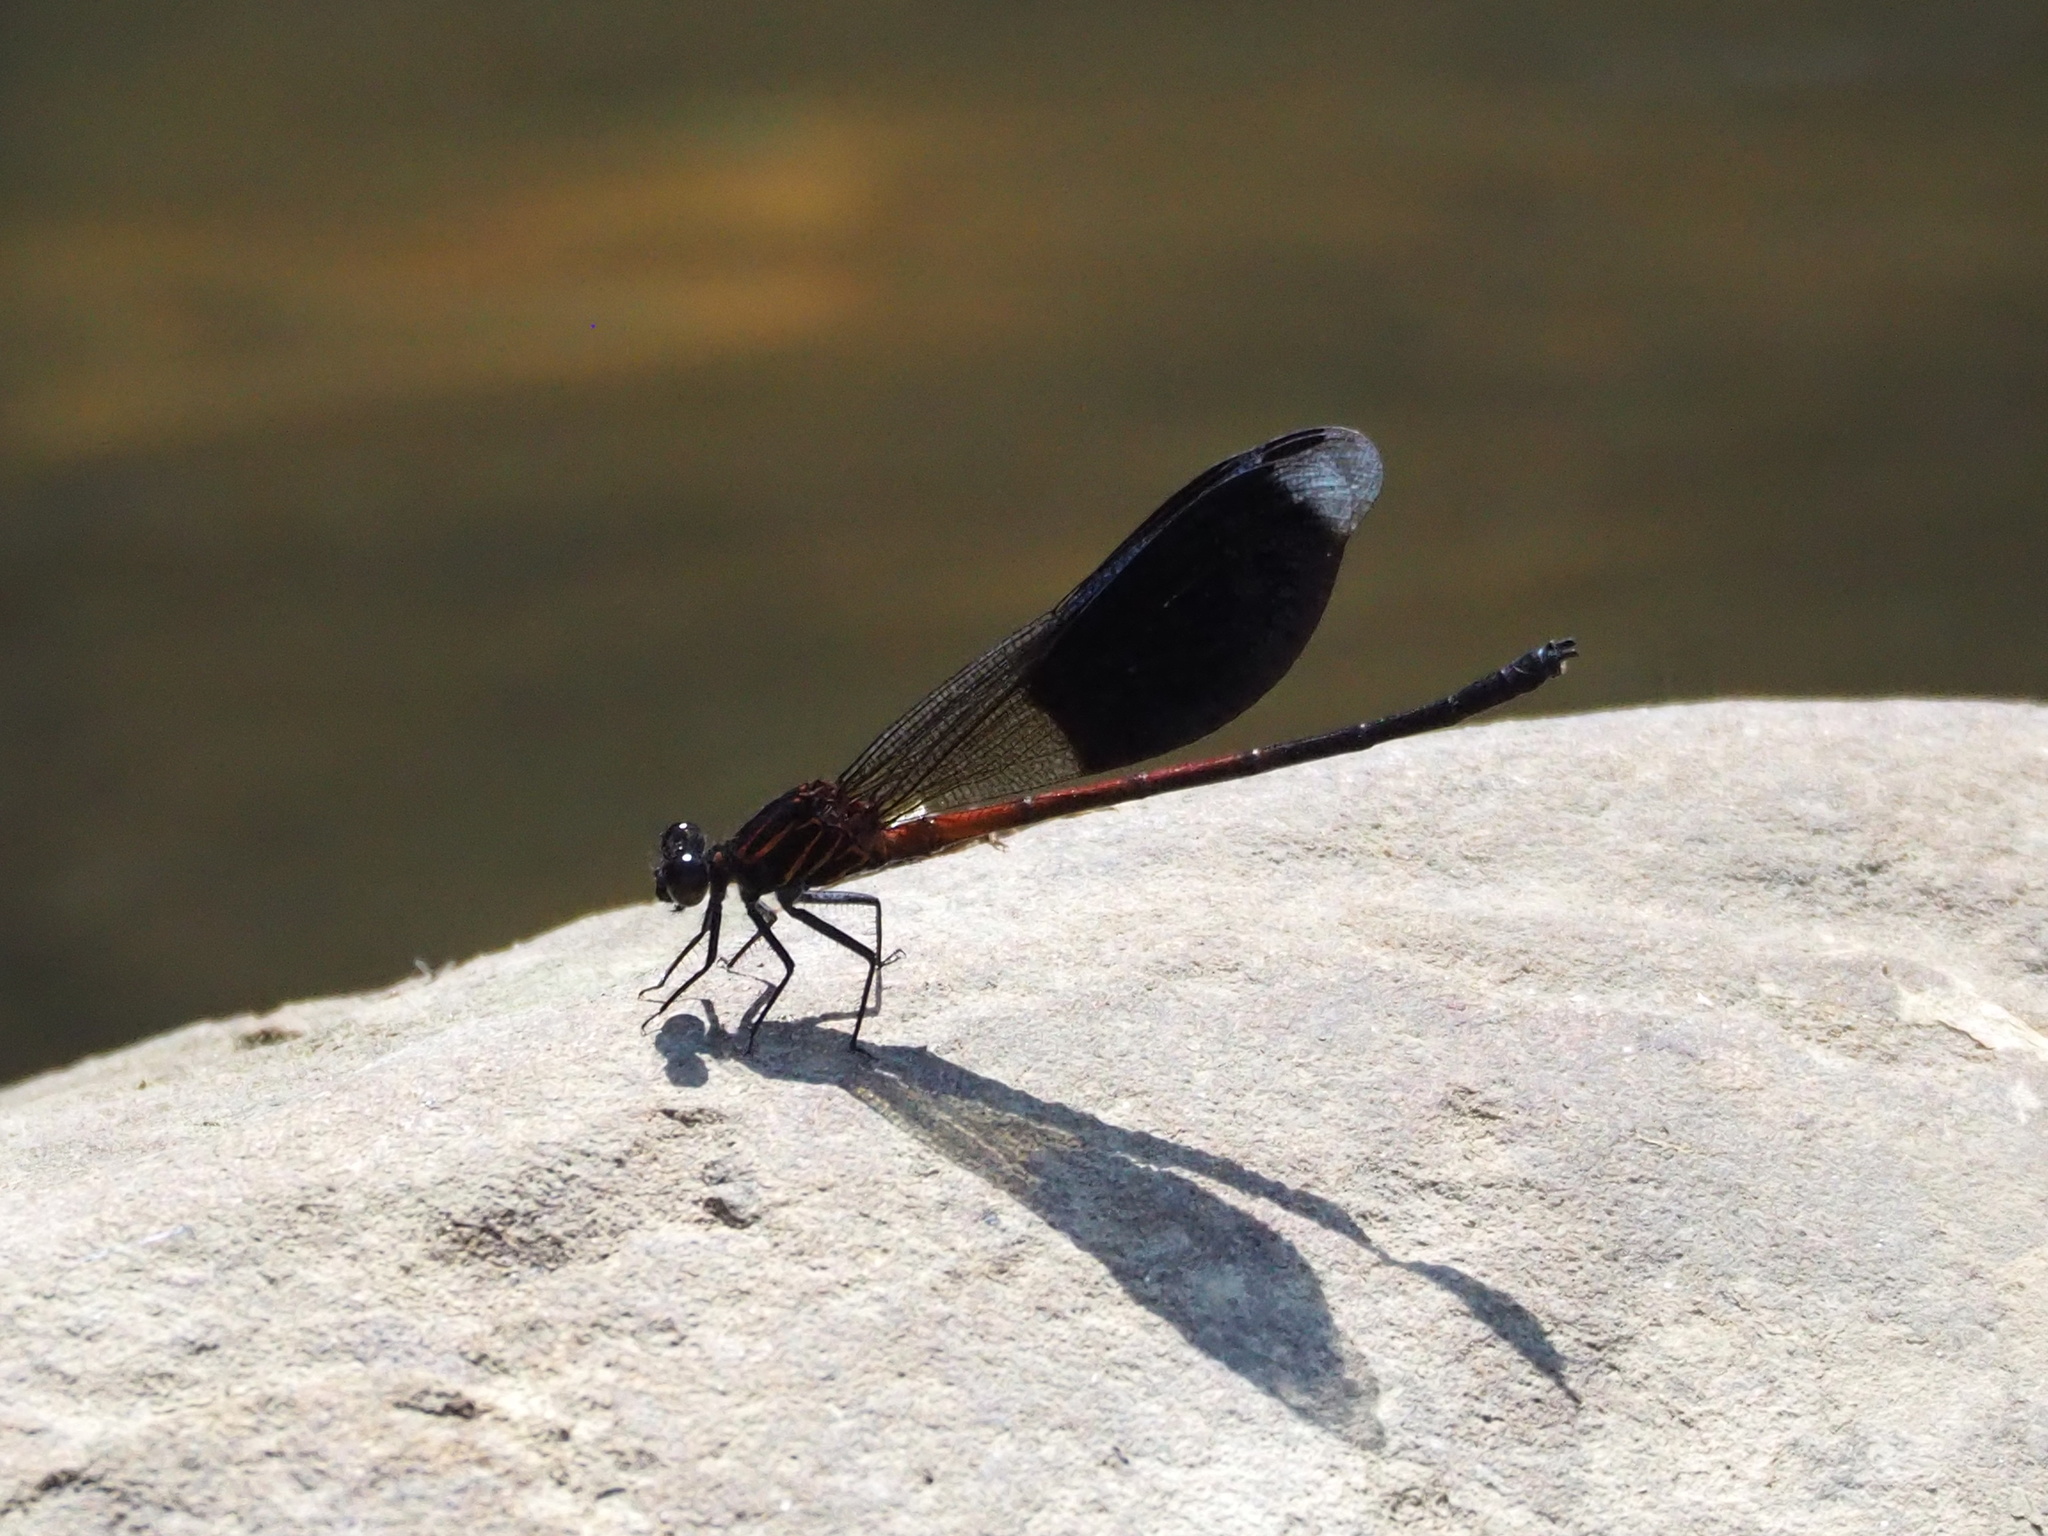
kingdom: Animalia
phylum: Arthropoda
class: Insecta
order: Odonata
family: Euphaeidae
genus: Euphaea
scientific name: Euphaea formosa
